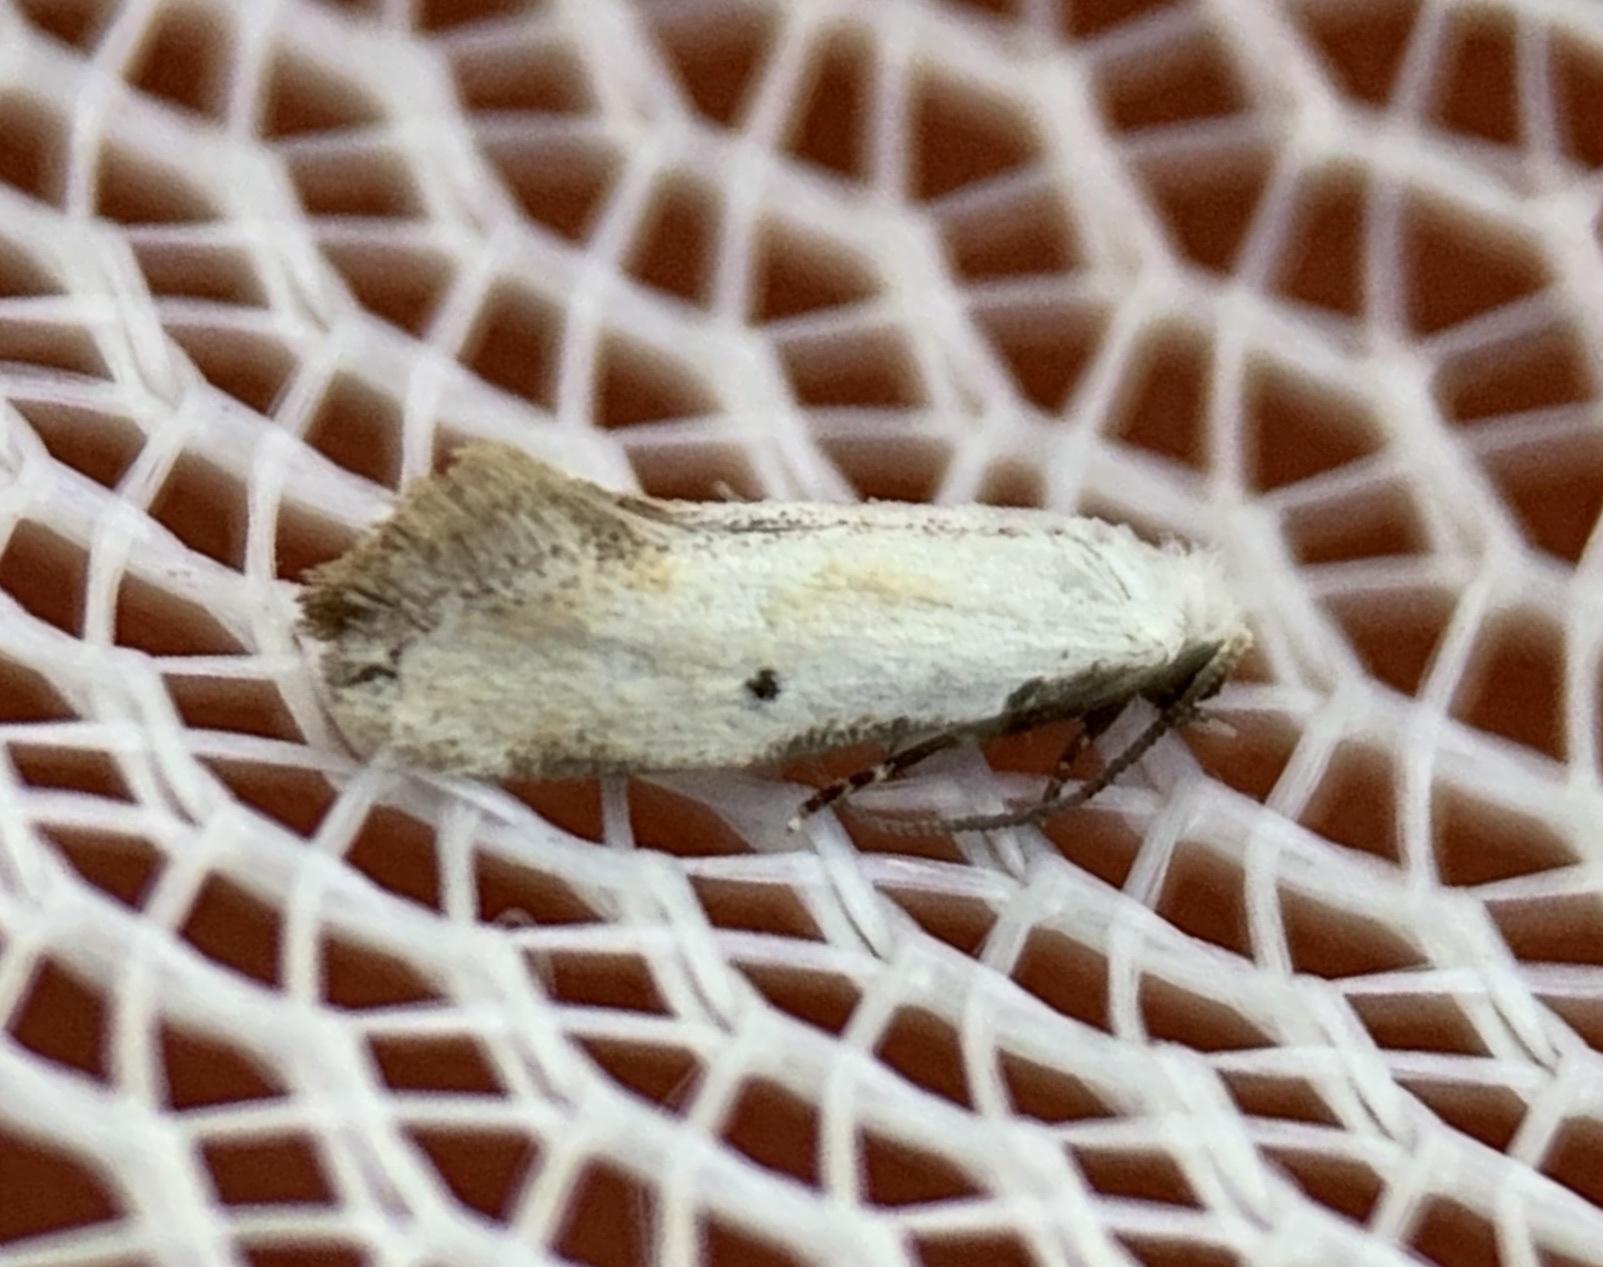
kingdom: Animalia
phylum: Arthropoda
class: Insecta
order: Lepidoptera
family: Meessiidae
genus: Mea
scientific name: Mea skinnerella
